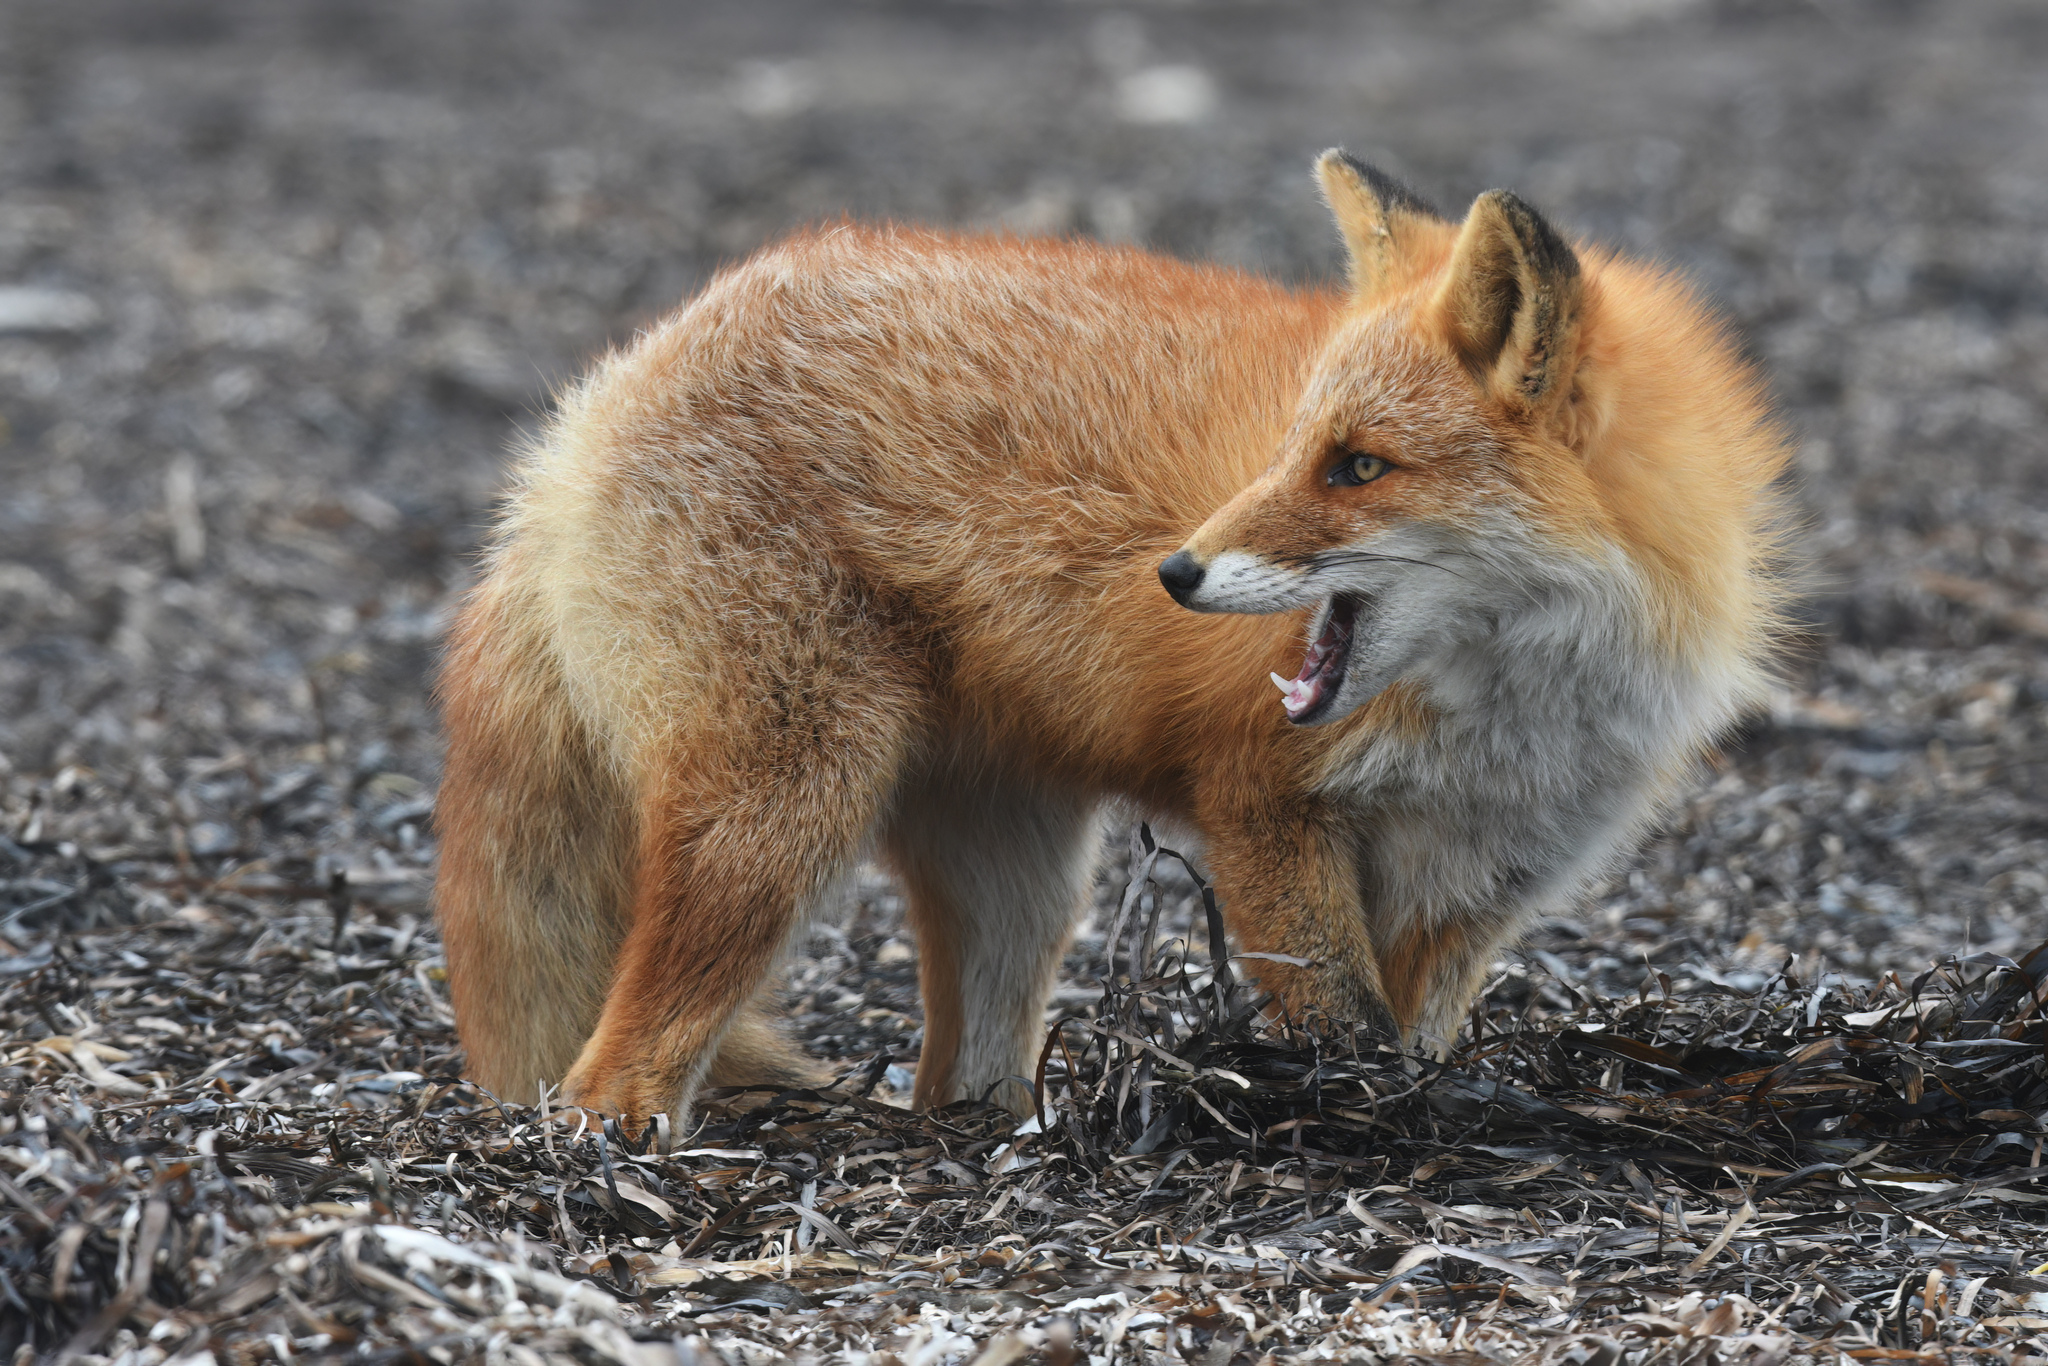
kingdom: Animalia
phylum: Chordata
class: Mammalia
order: Carnivora
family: Canidae
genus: Vulpes
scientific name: Vulpes vulpes
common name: Red fox
